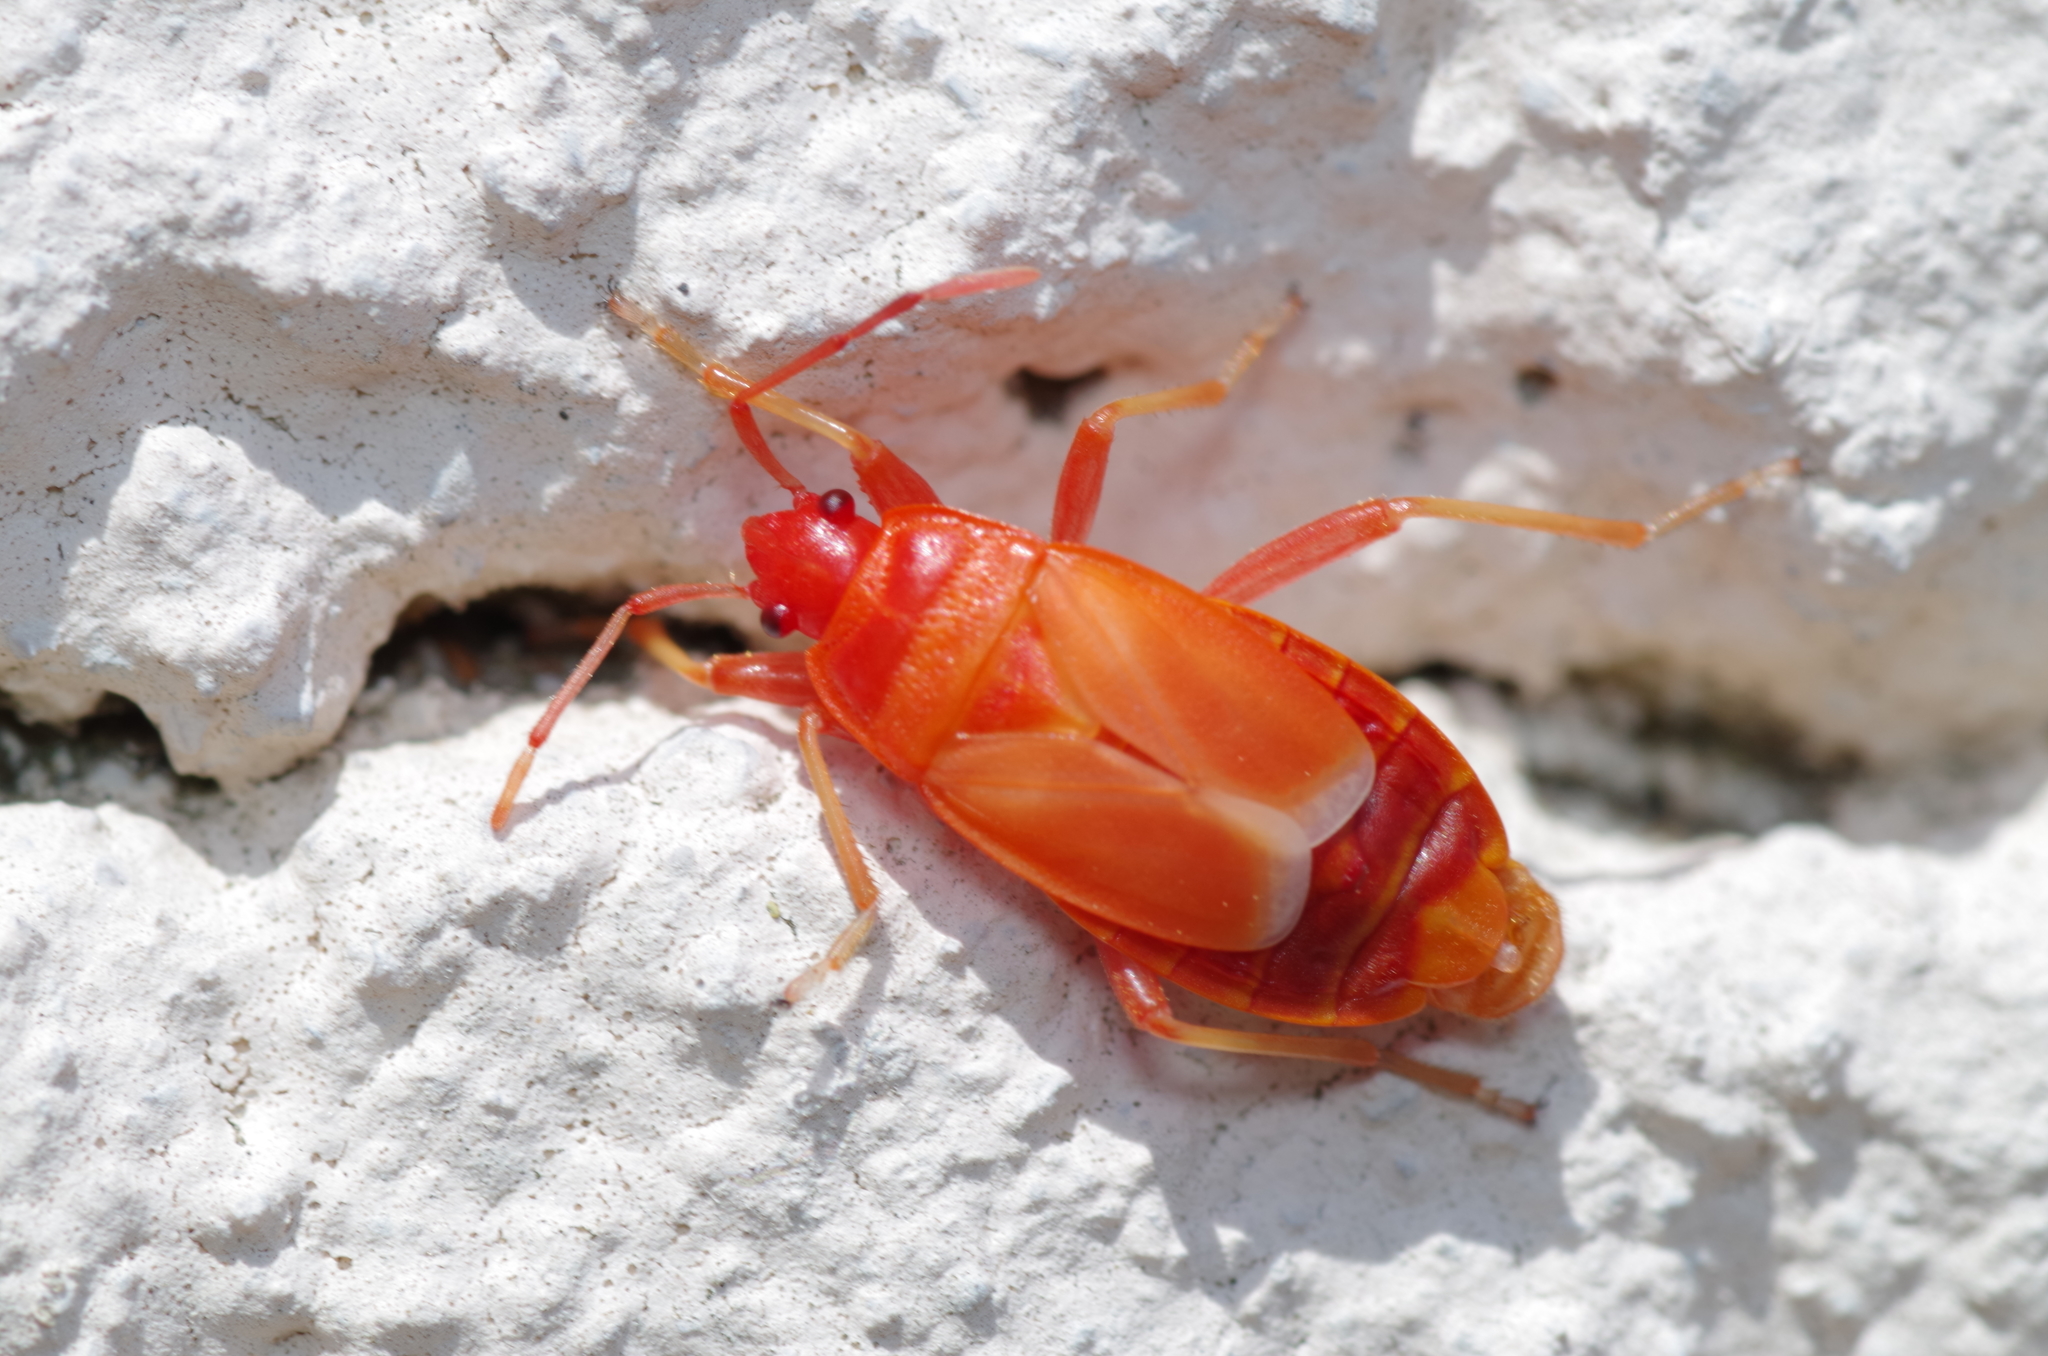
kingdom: Animalia
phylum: Arthropoda
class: Insecta
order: Hemiptera
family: Pyrrhocoridae
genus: Pyrrhocoris
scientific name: Pyrrhocoris apterus
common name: Firebug
